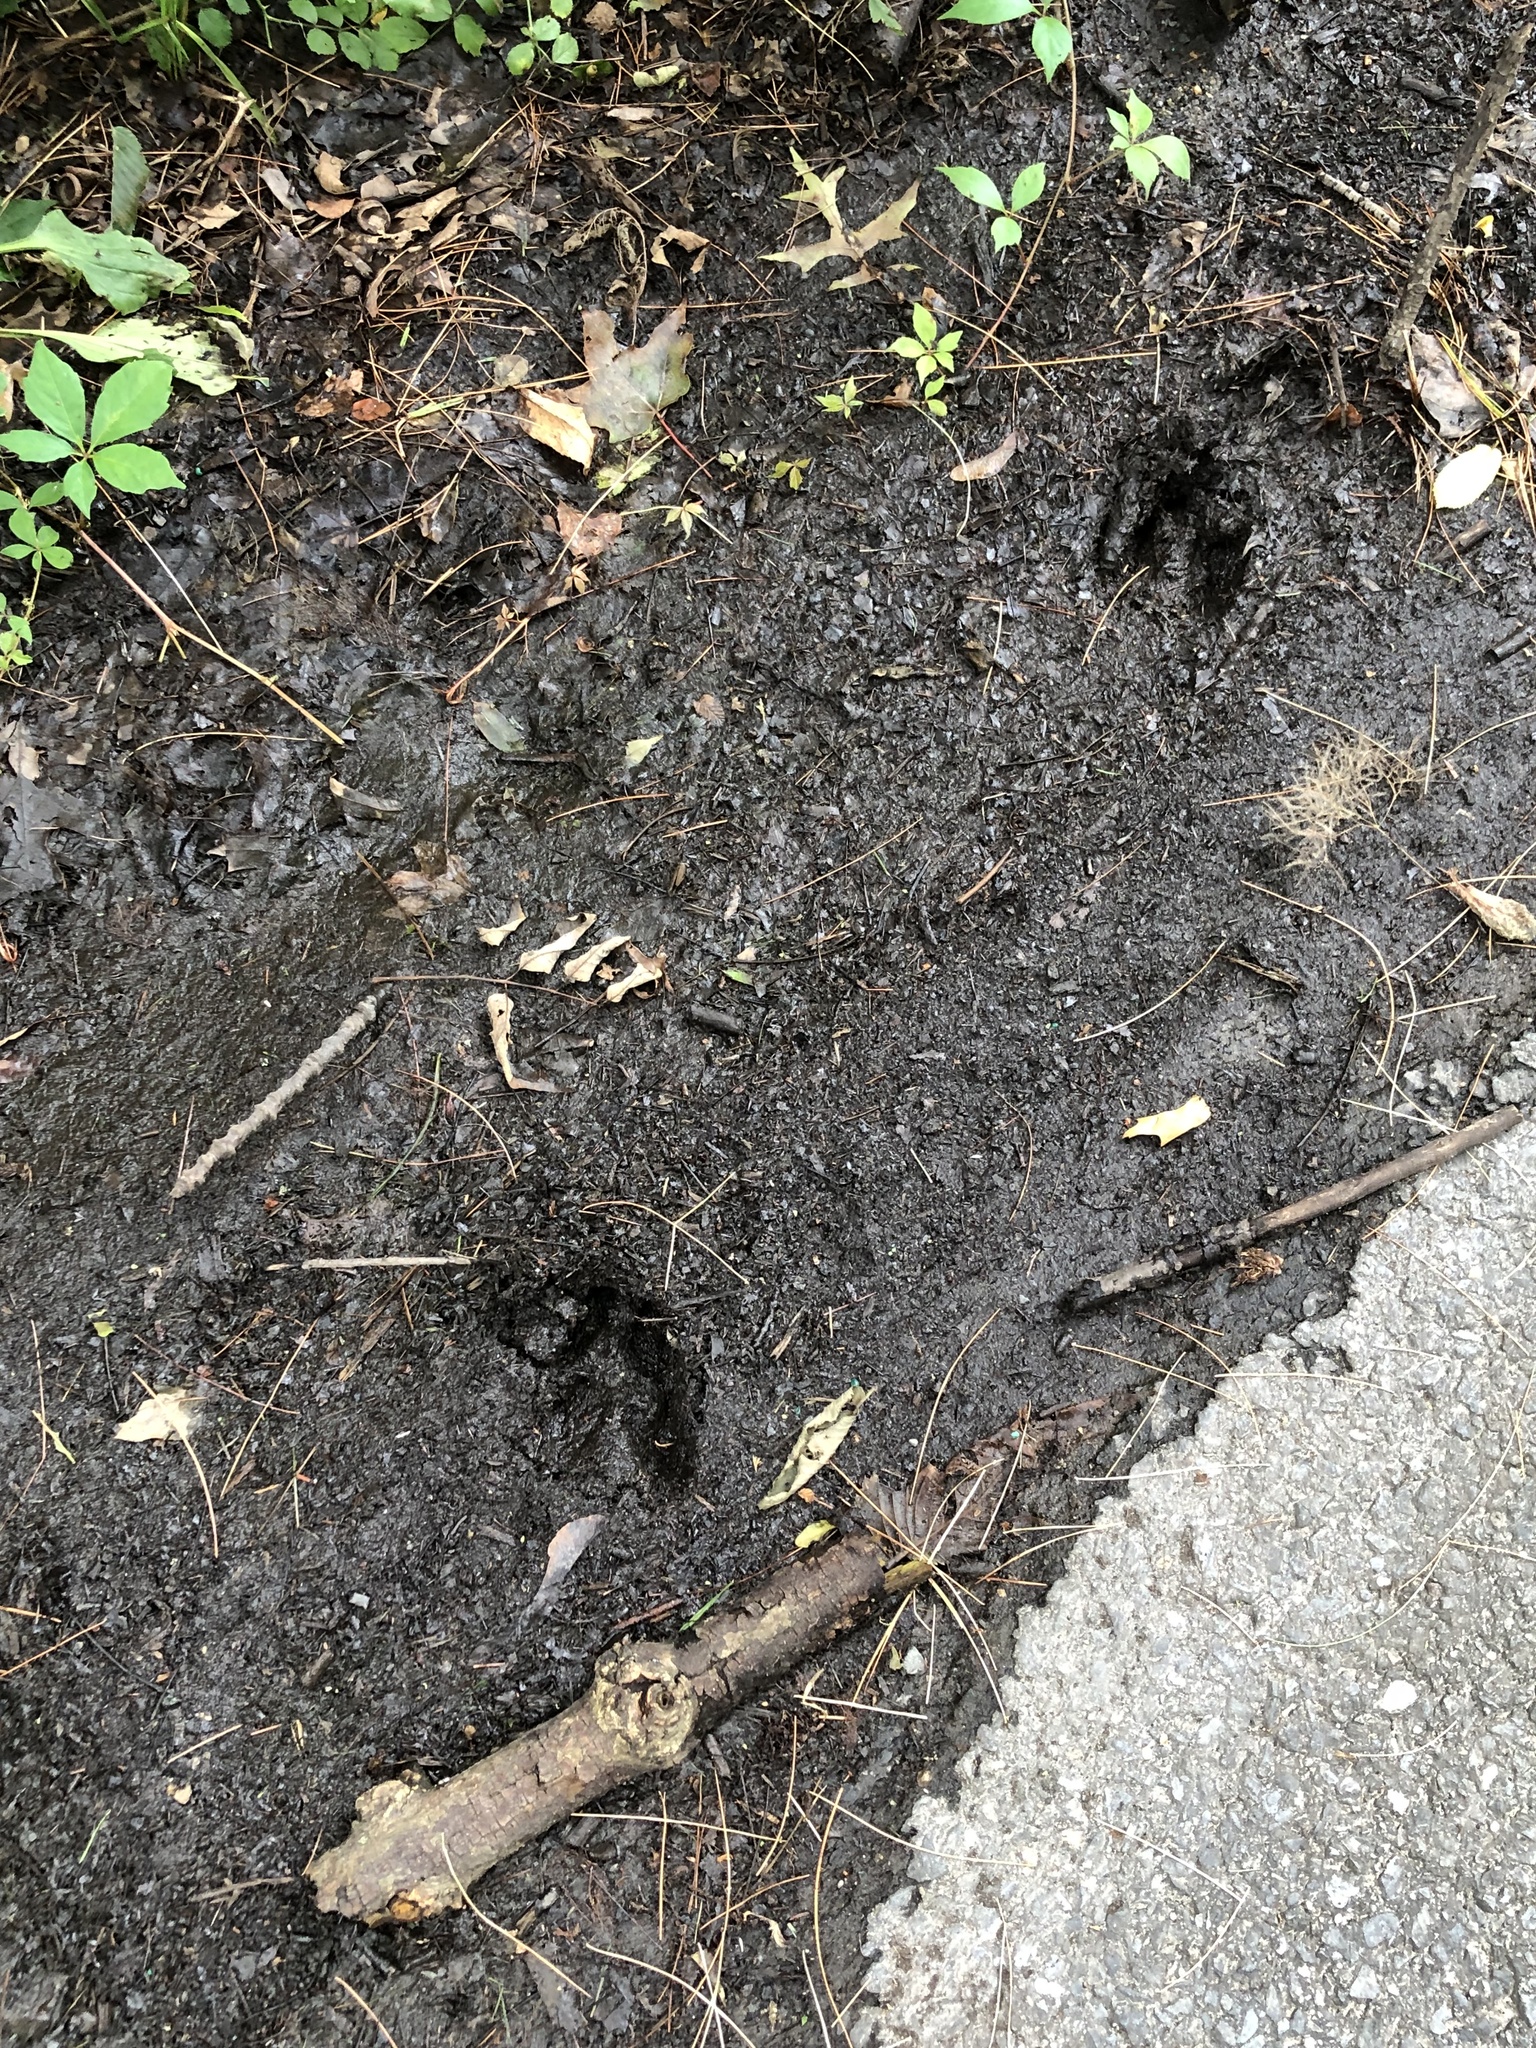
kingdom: Animalia
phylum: Chordata
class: Mammalia
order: Artiodactyla
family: Cervidae
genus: Odocoileus
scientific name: Odocoileus virginianus
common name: White-tailed deer
